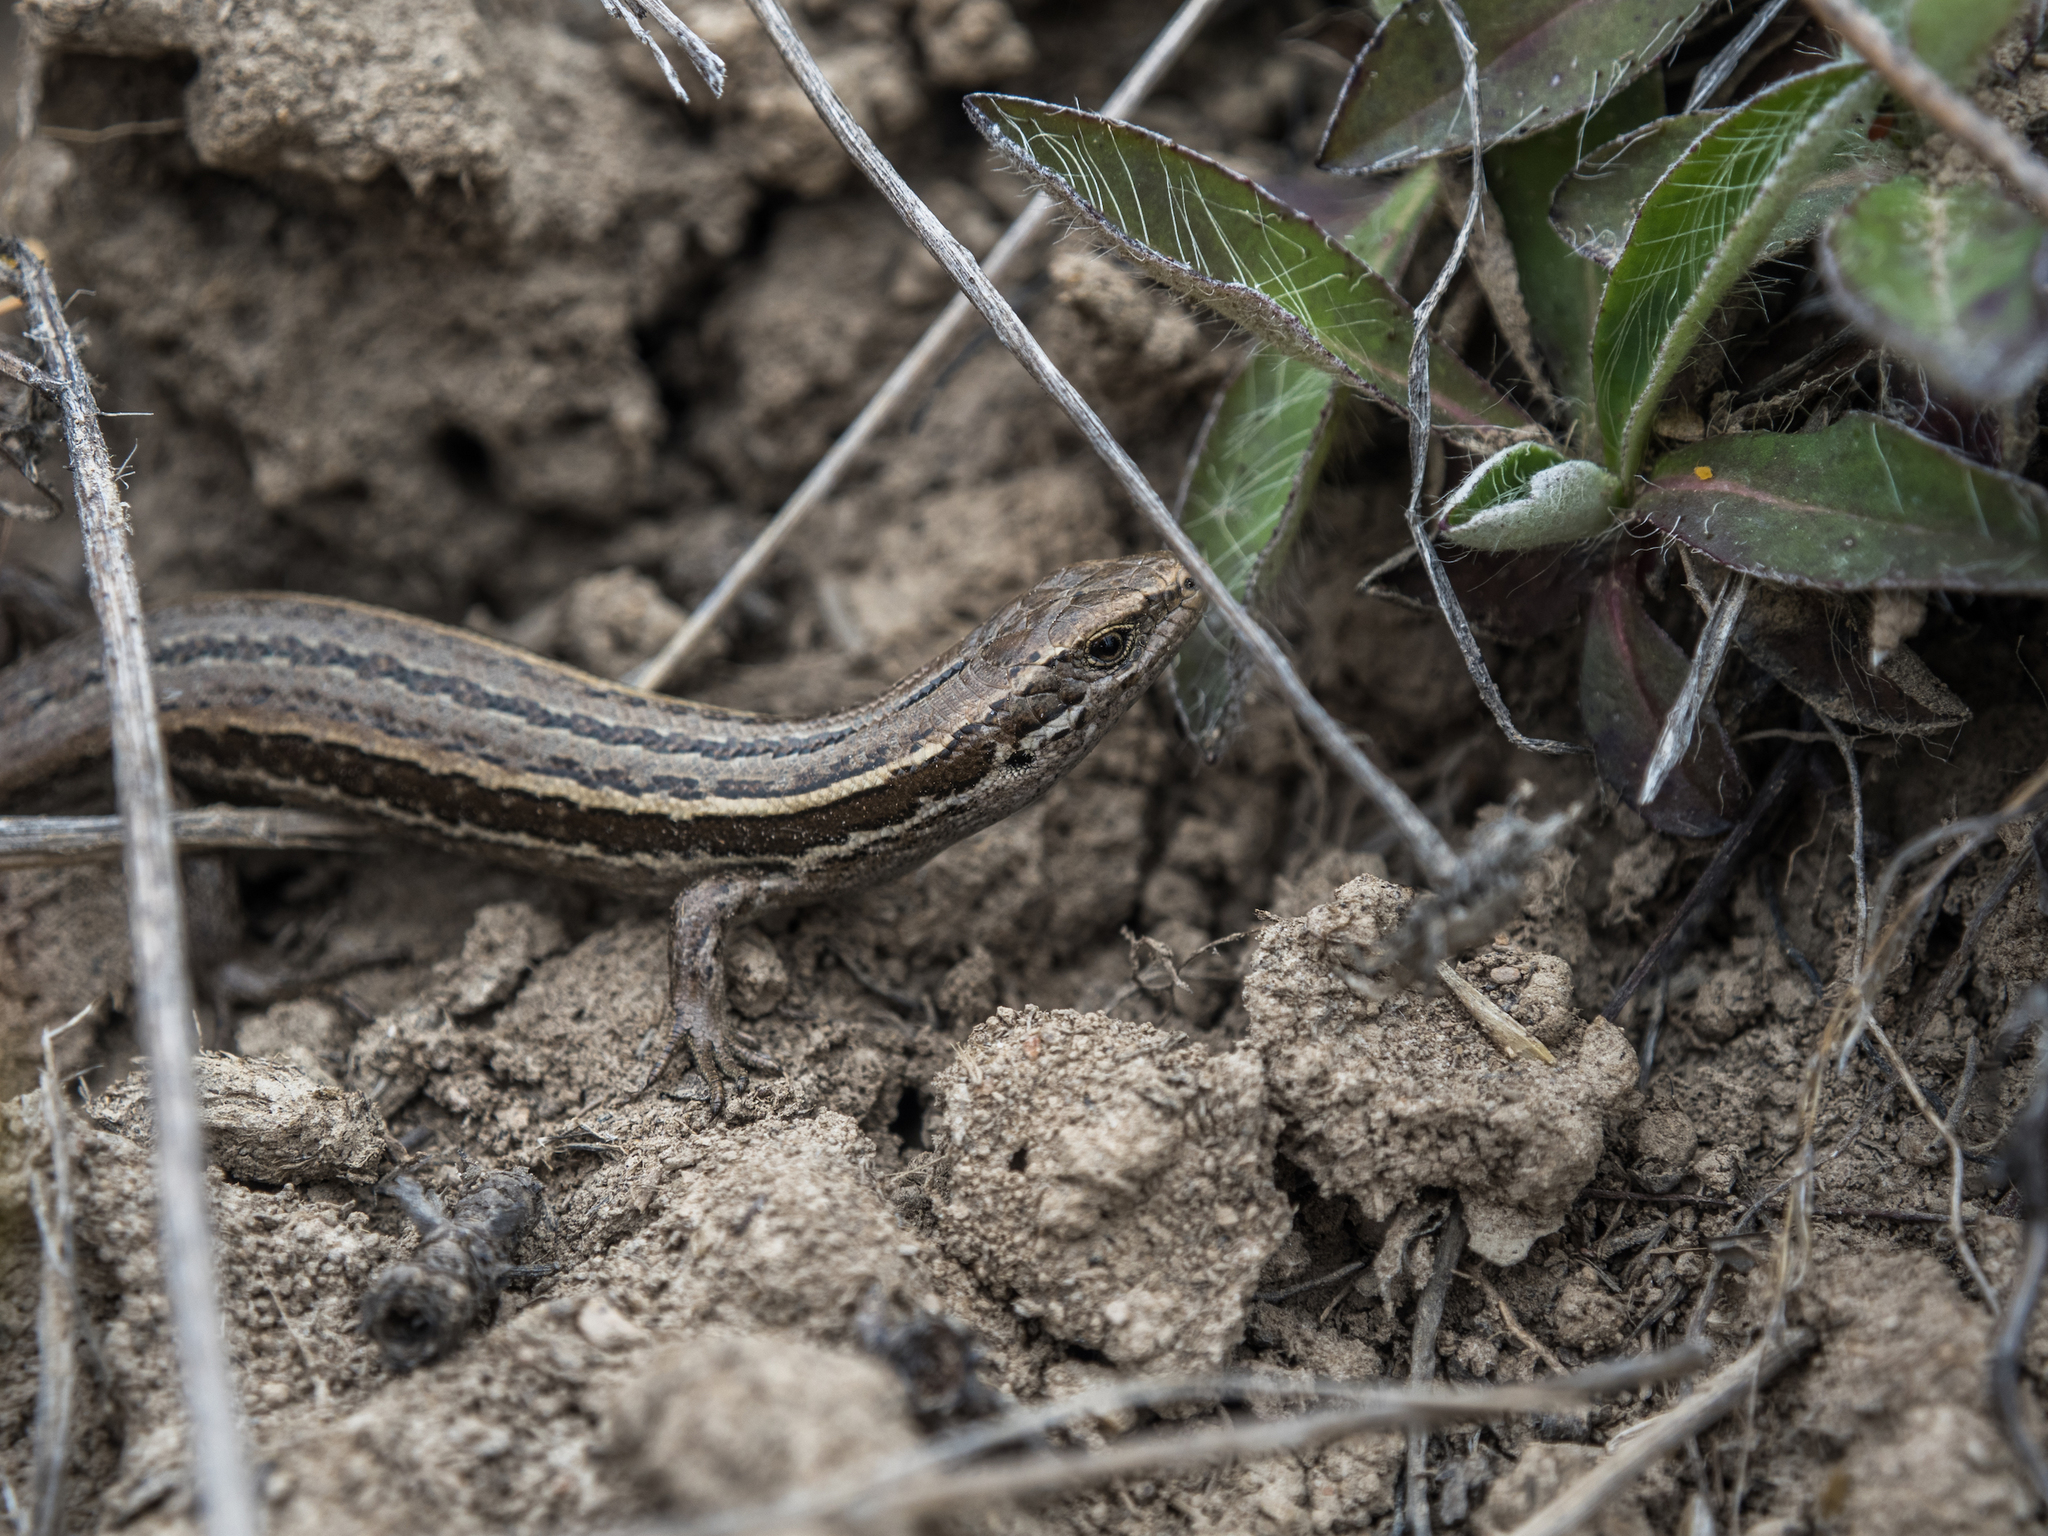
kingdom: Animalia
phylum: Chordata
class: Squamata
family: Scincidae
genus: Oligosoma
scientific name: Oligosoma maccanni
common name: Mccann’s skink
